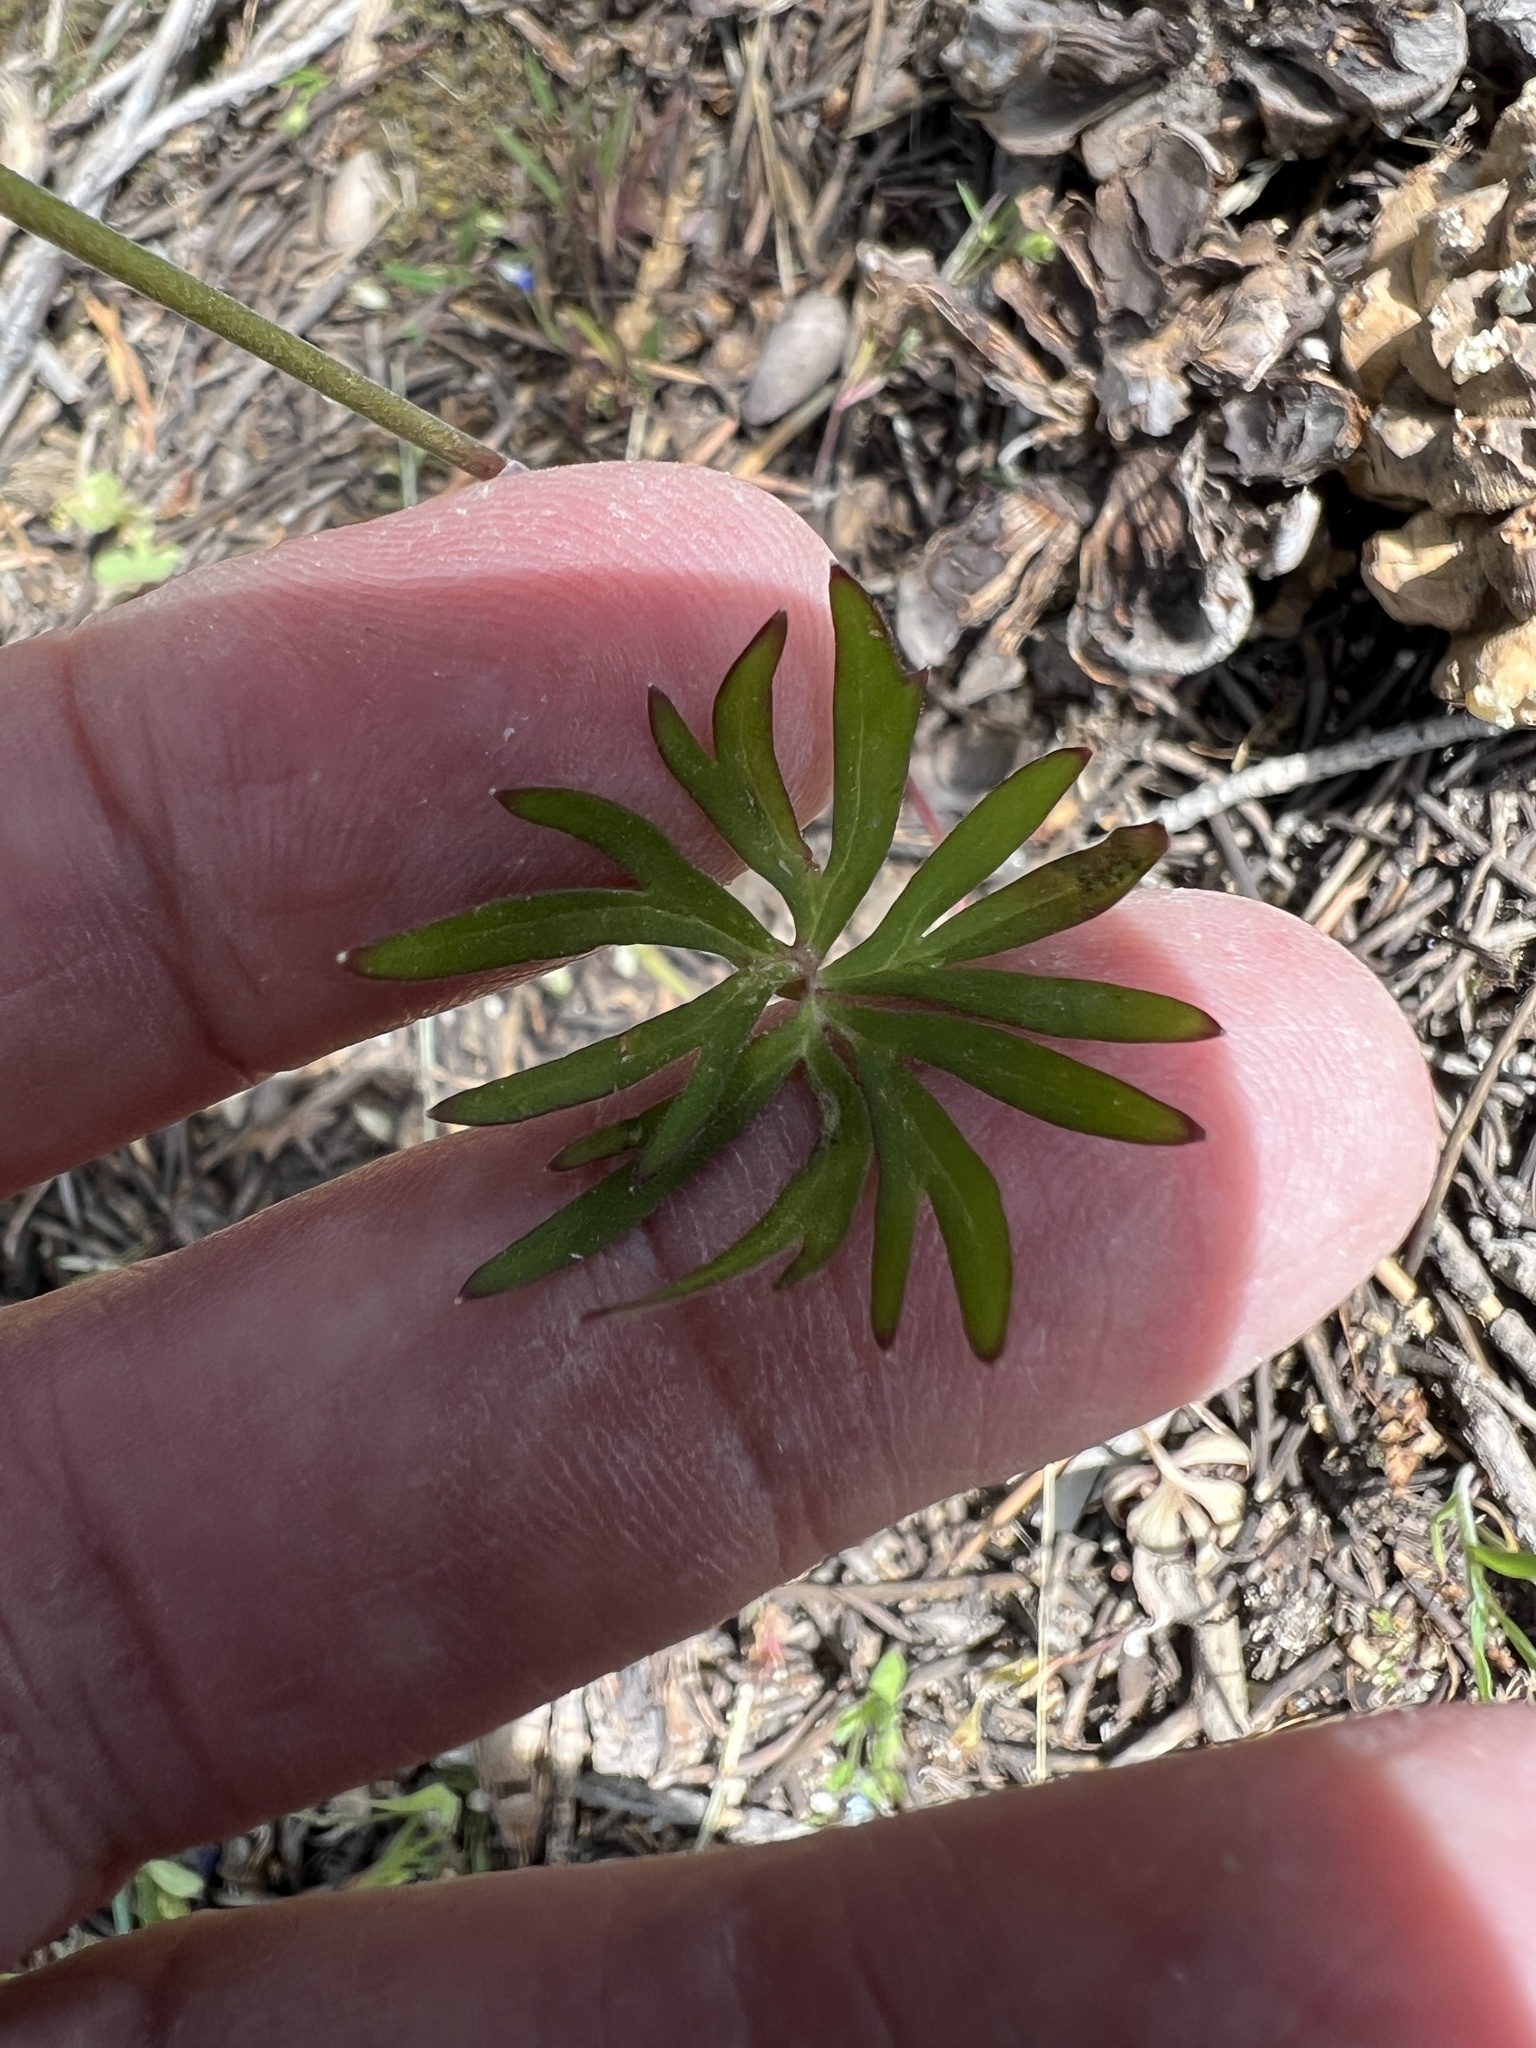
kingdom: Plantae
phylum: Tracheophyta
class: Magnoliopsida
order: Ranunculales
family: Ranunculaceae
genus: Delphinium
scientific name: Delphinium nuttallianum
